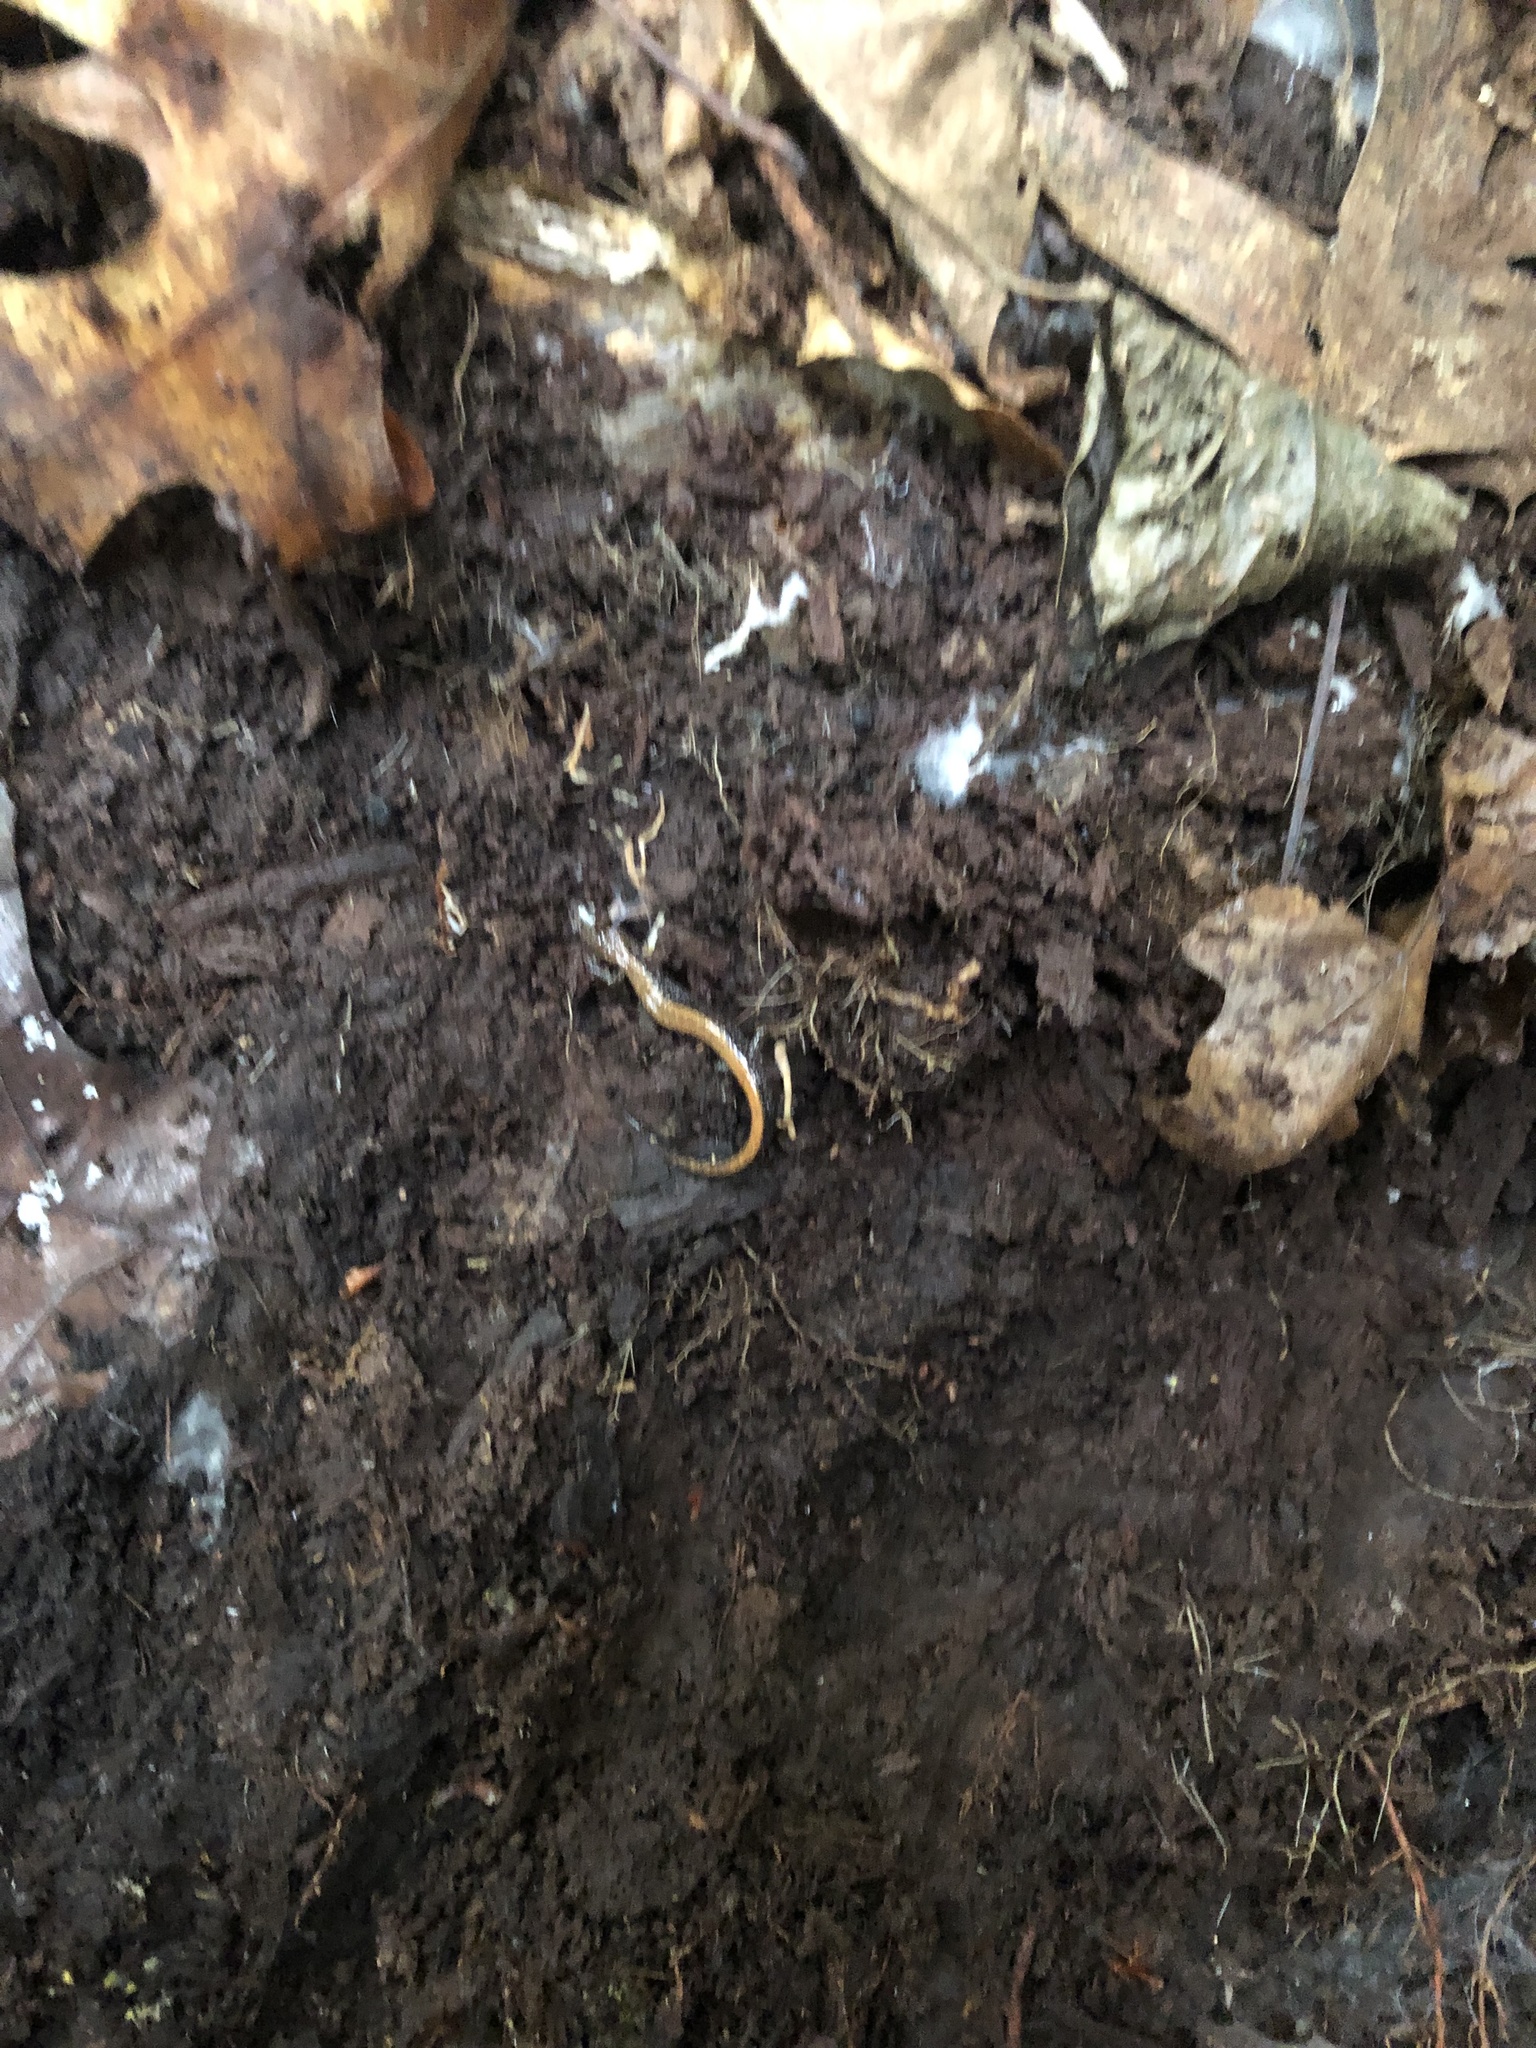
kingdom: Animalia
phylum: Chordata
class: Amphibia
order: Caudata
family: Plethodontidae
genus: Plethodon
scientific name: Plethodon cinereus
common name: Redback salamander
